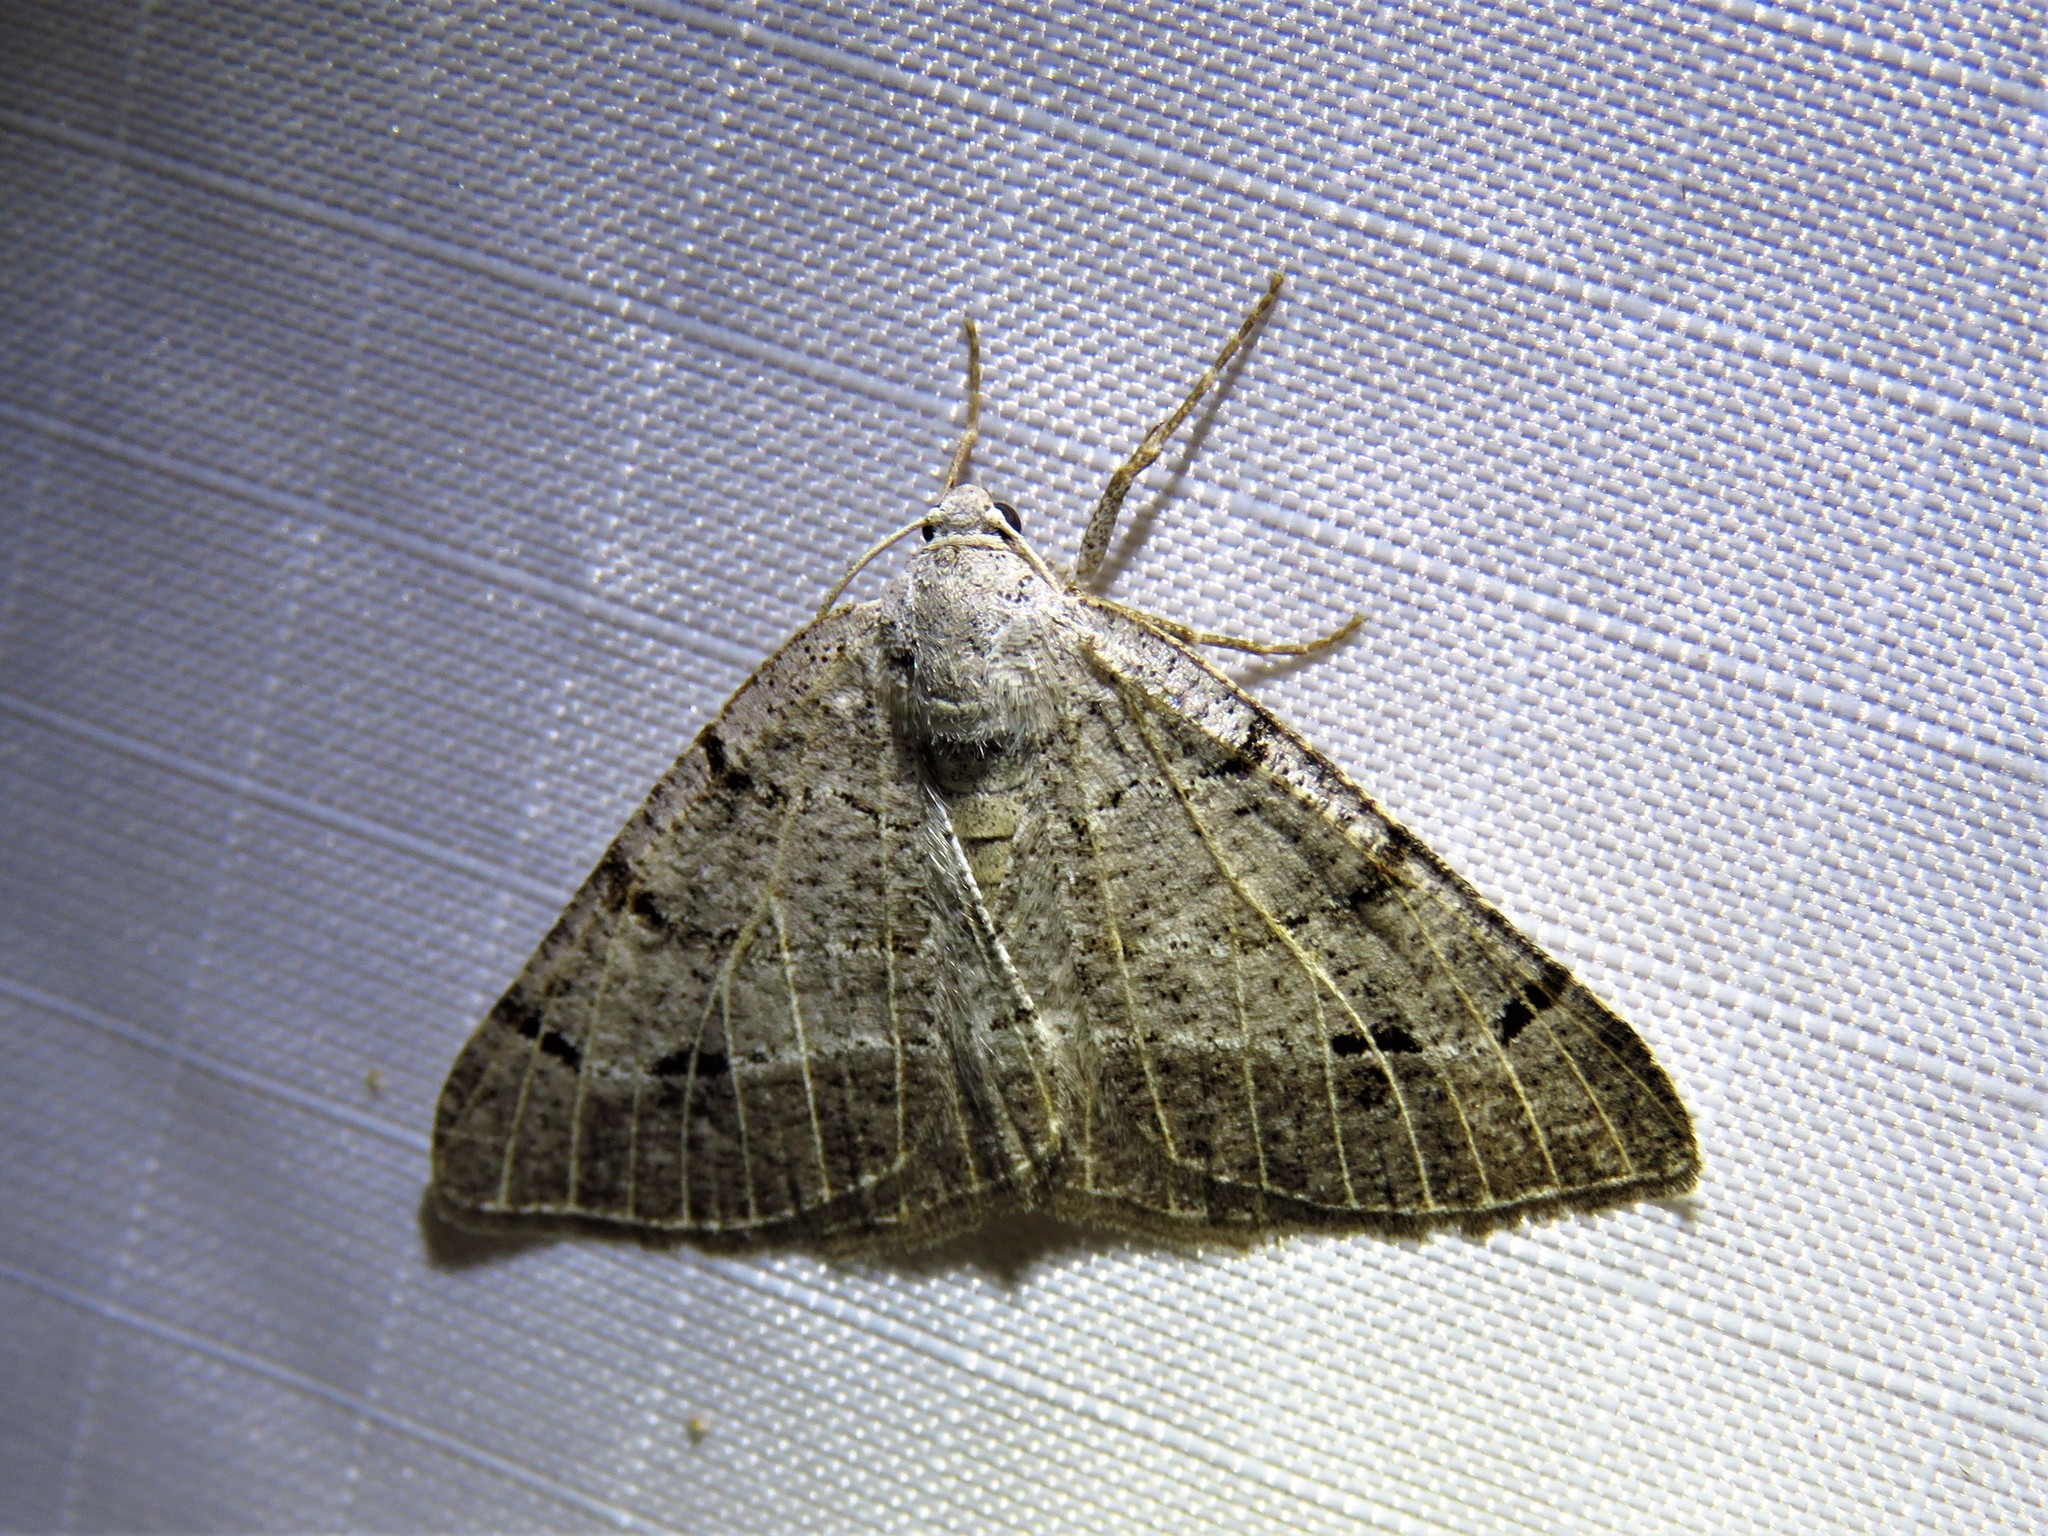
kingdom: Animalia
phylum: Arthropoda
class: Insecta
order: Lepidoptera
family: Geometridae
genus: Isturgia
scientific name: Isturgia dislocaria
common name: Pale-viened enconista
